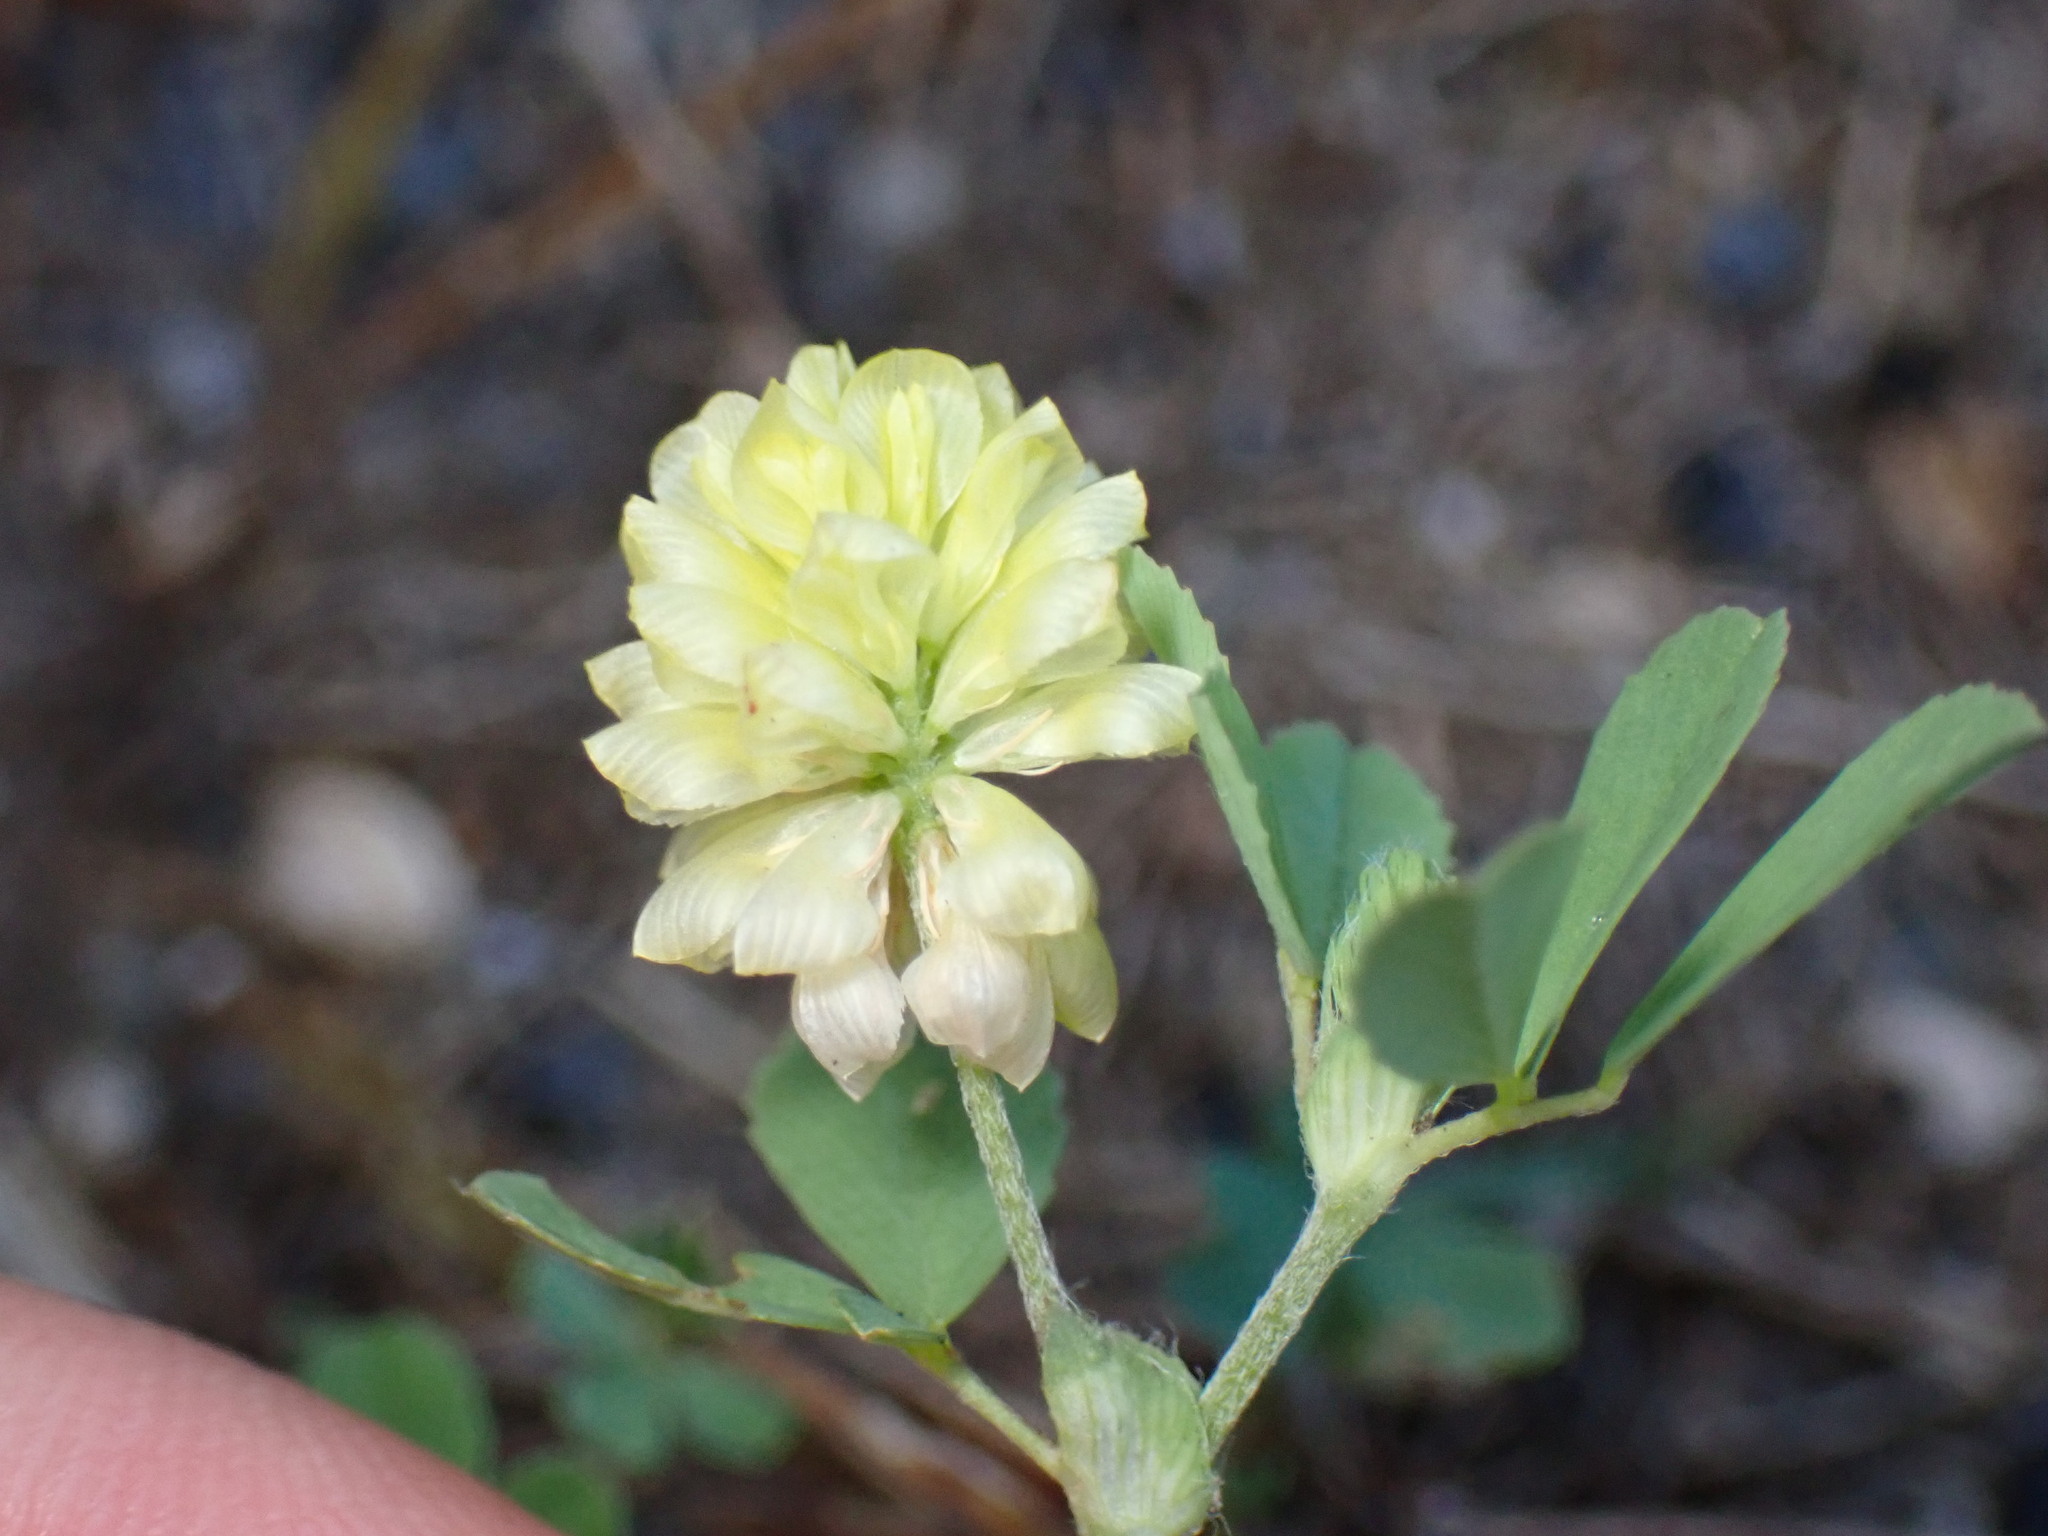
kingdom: Plantae
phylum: Tracheophyta
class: Magnoliopsida
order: Fabales
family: Fabaceae
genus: Trifolium
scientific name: Trifolium campestre
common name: Field clover
